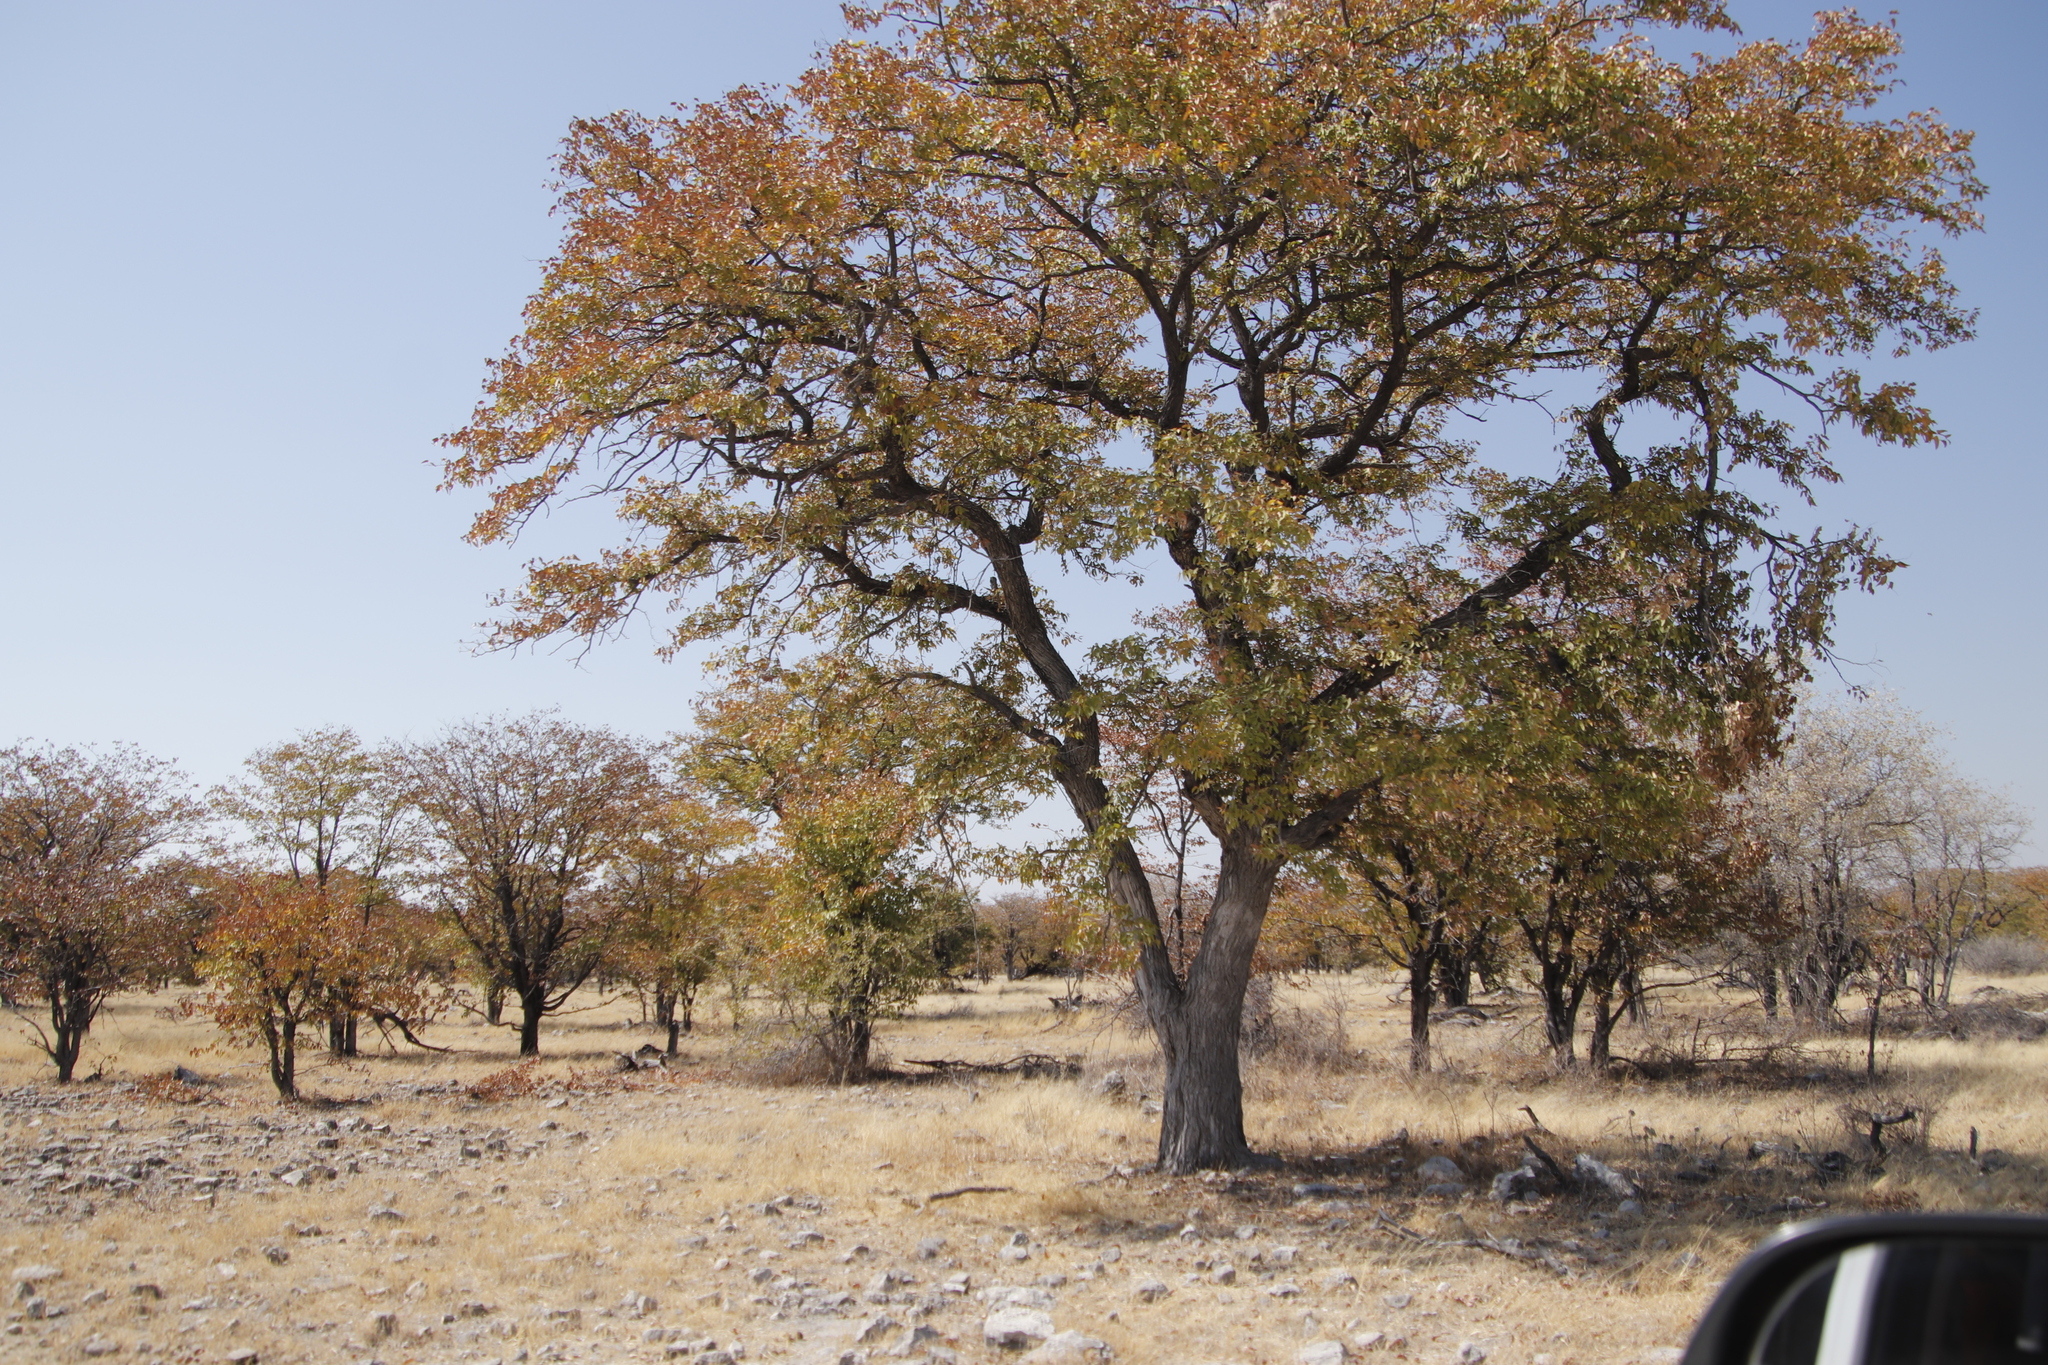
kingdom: Plantae
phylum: Tracheophyta
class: Magnoliopsida
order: Fabales
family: Fabaceae
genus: Colophospermum
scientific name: Colophospermum mopane
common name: Mopane
